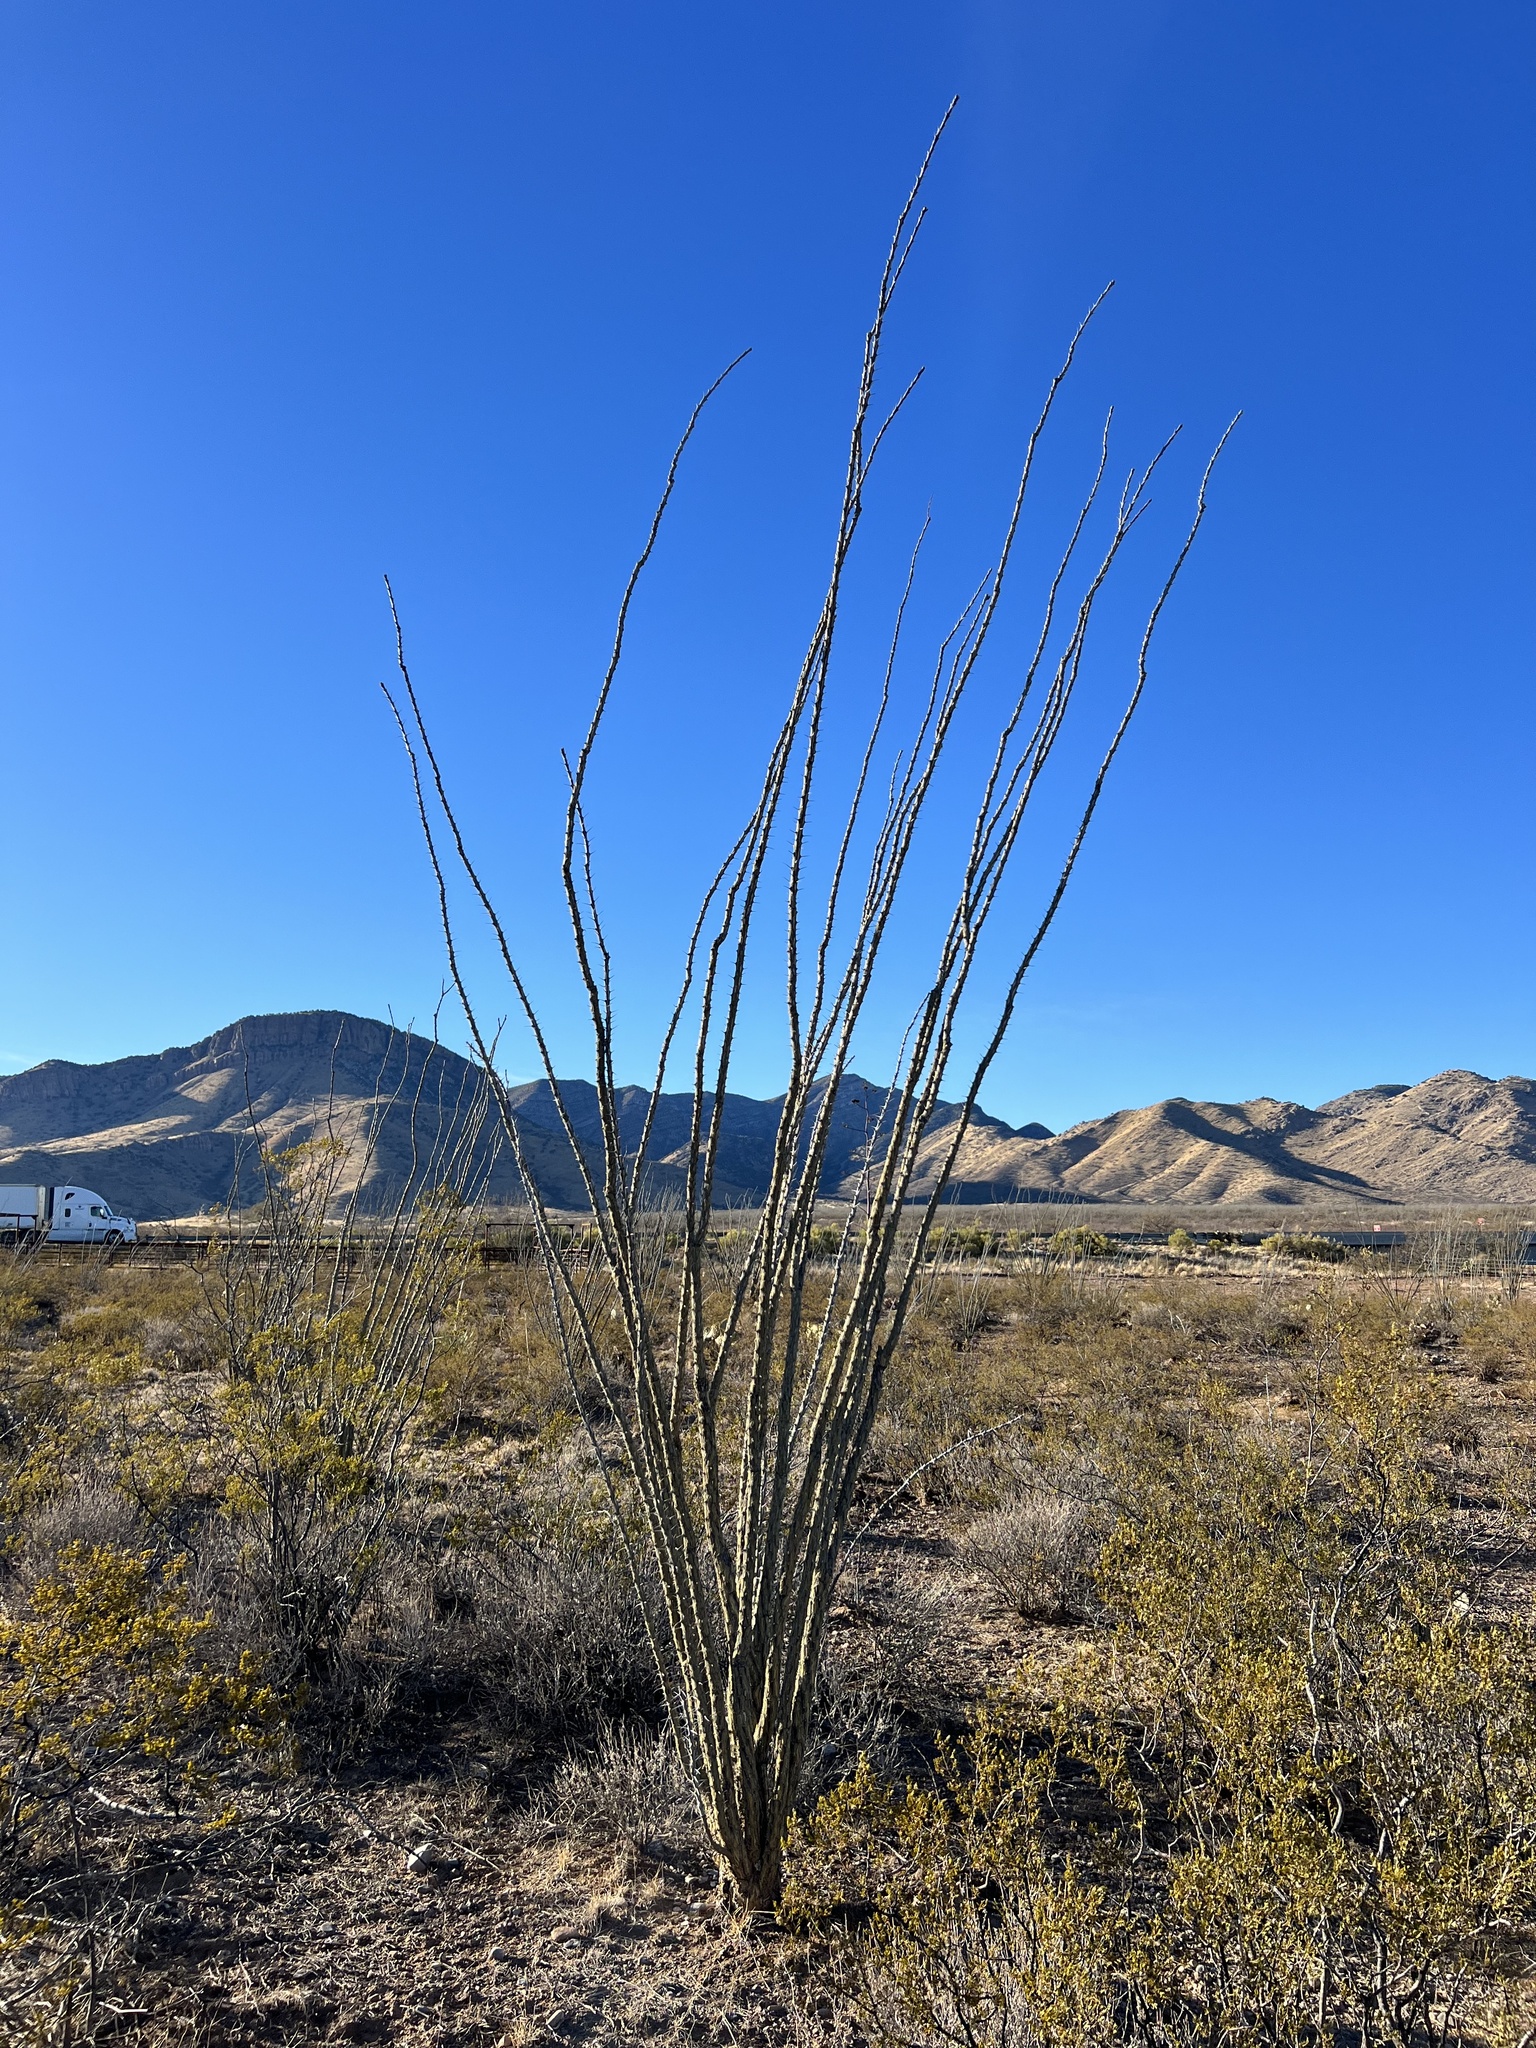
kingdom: Plantae
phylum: Tracheophyta
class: Magnoliopsida
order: Ericales
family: Fouquieriaceae
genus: Fouquieria
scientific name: Fouquieria splendens
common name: Vine-cactus
